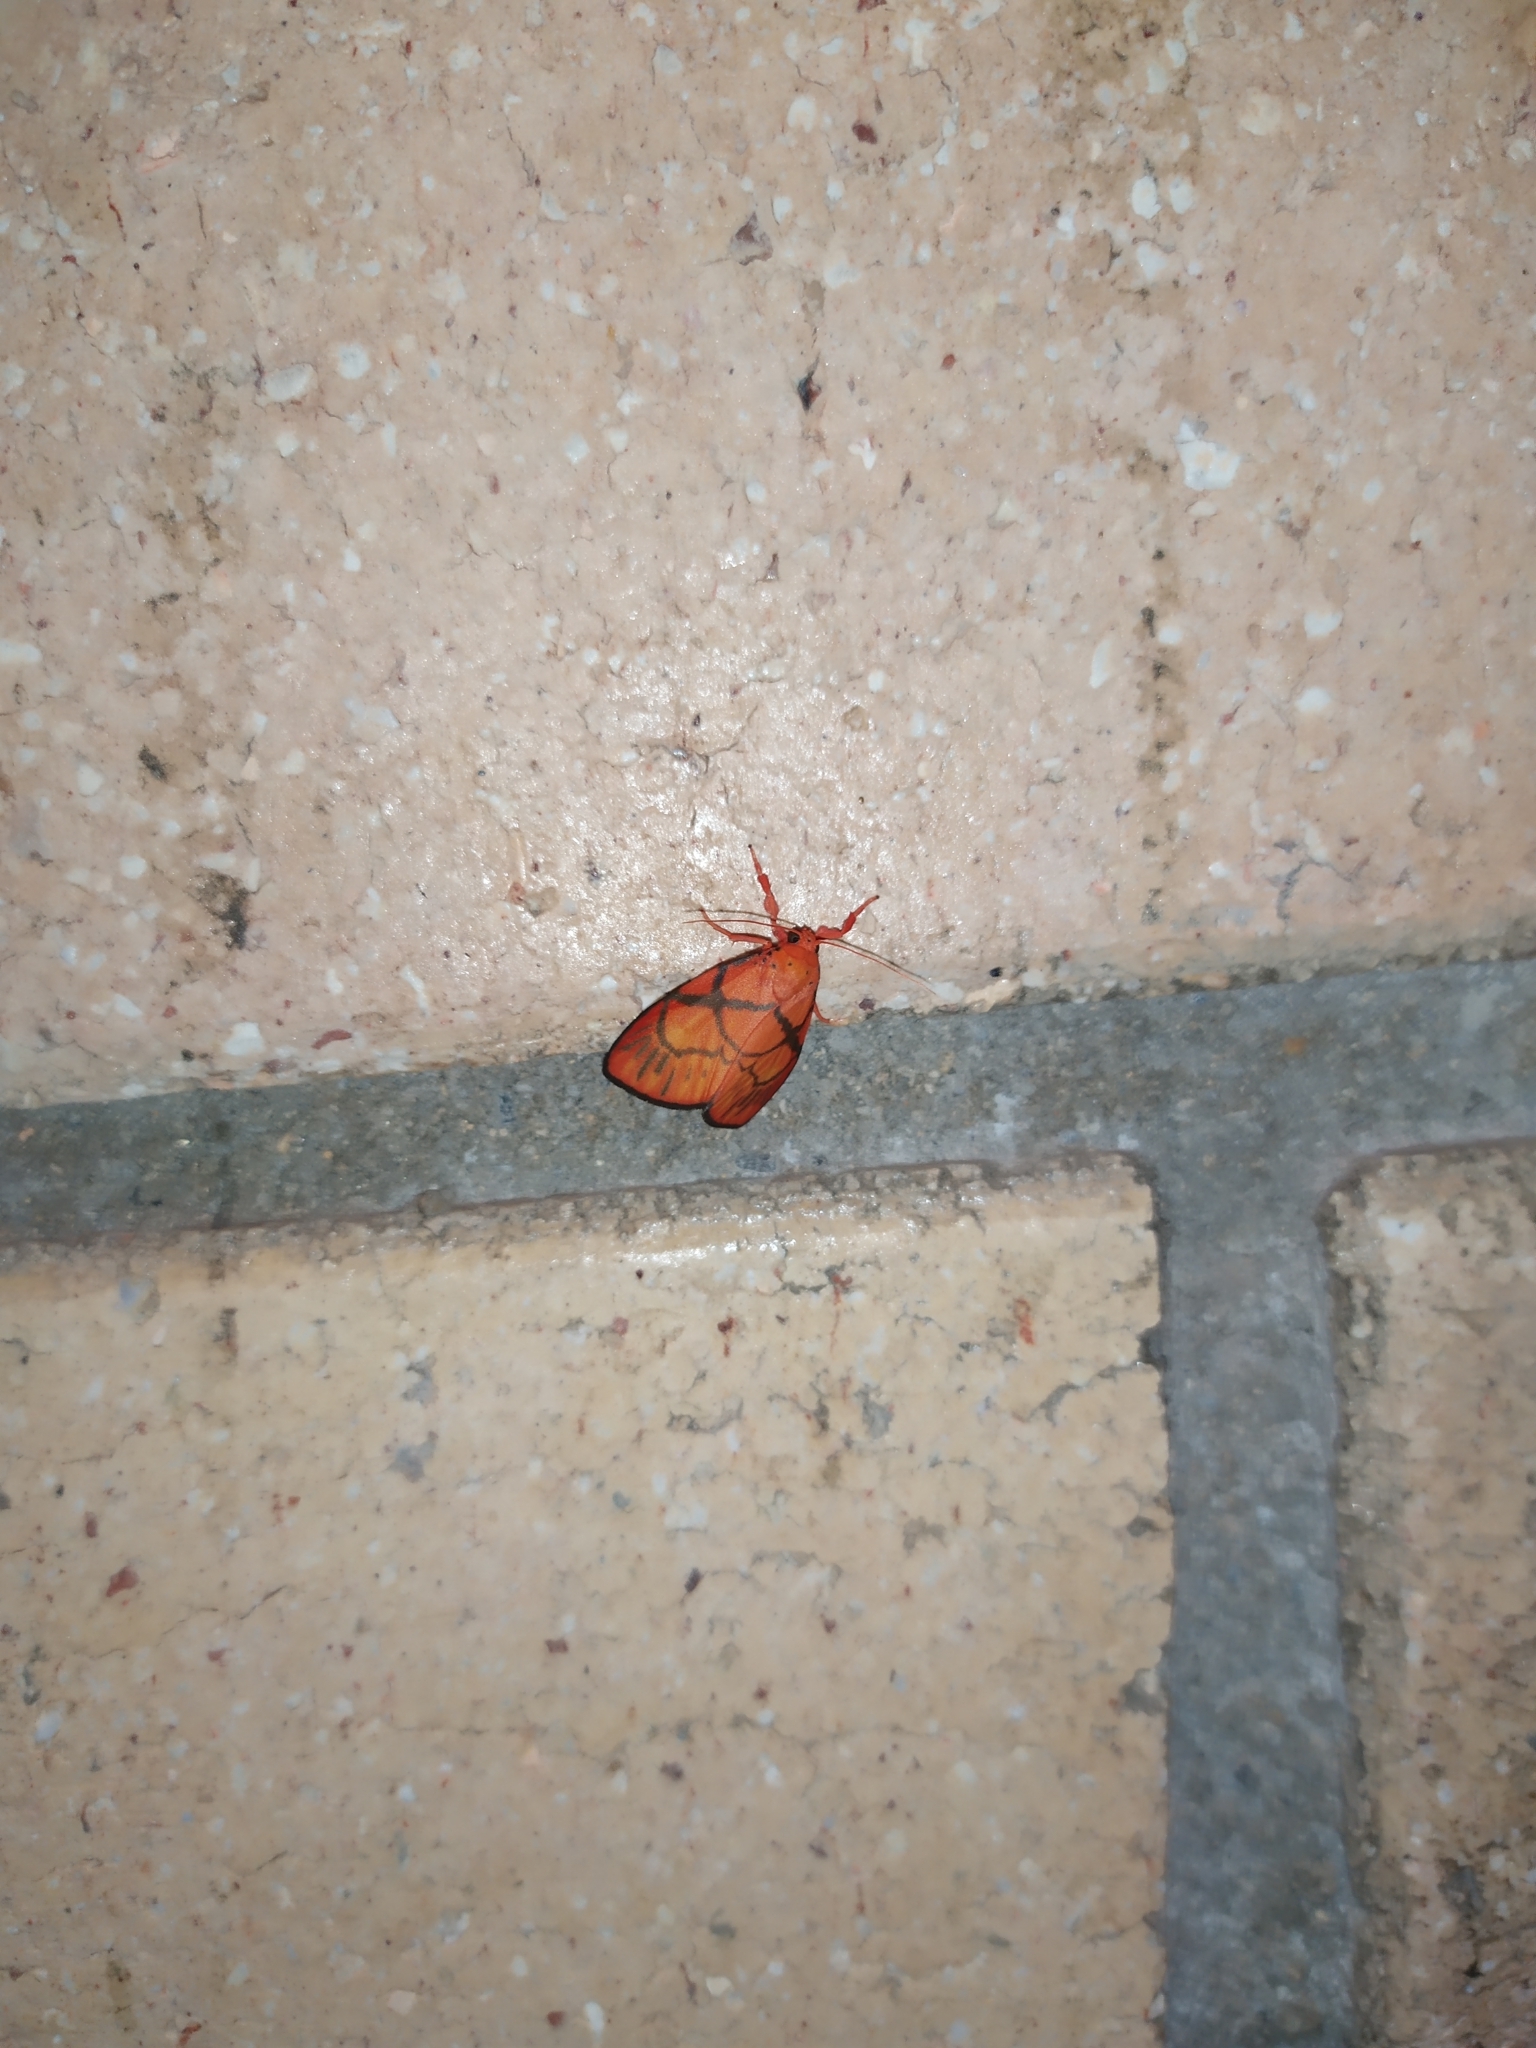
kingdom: Animalia
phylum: Arthropoda
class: Insecta
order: Lepidoptera
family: Erebidae
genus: Sarbine
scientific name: Sarbine flavodiscalis
